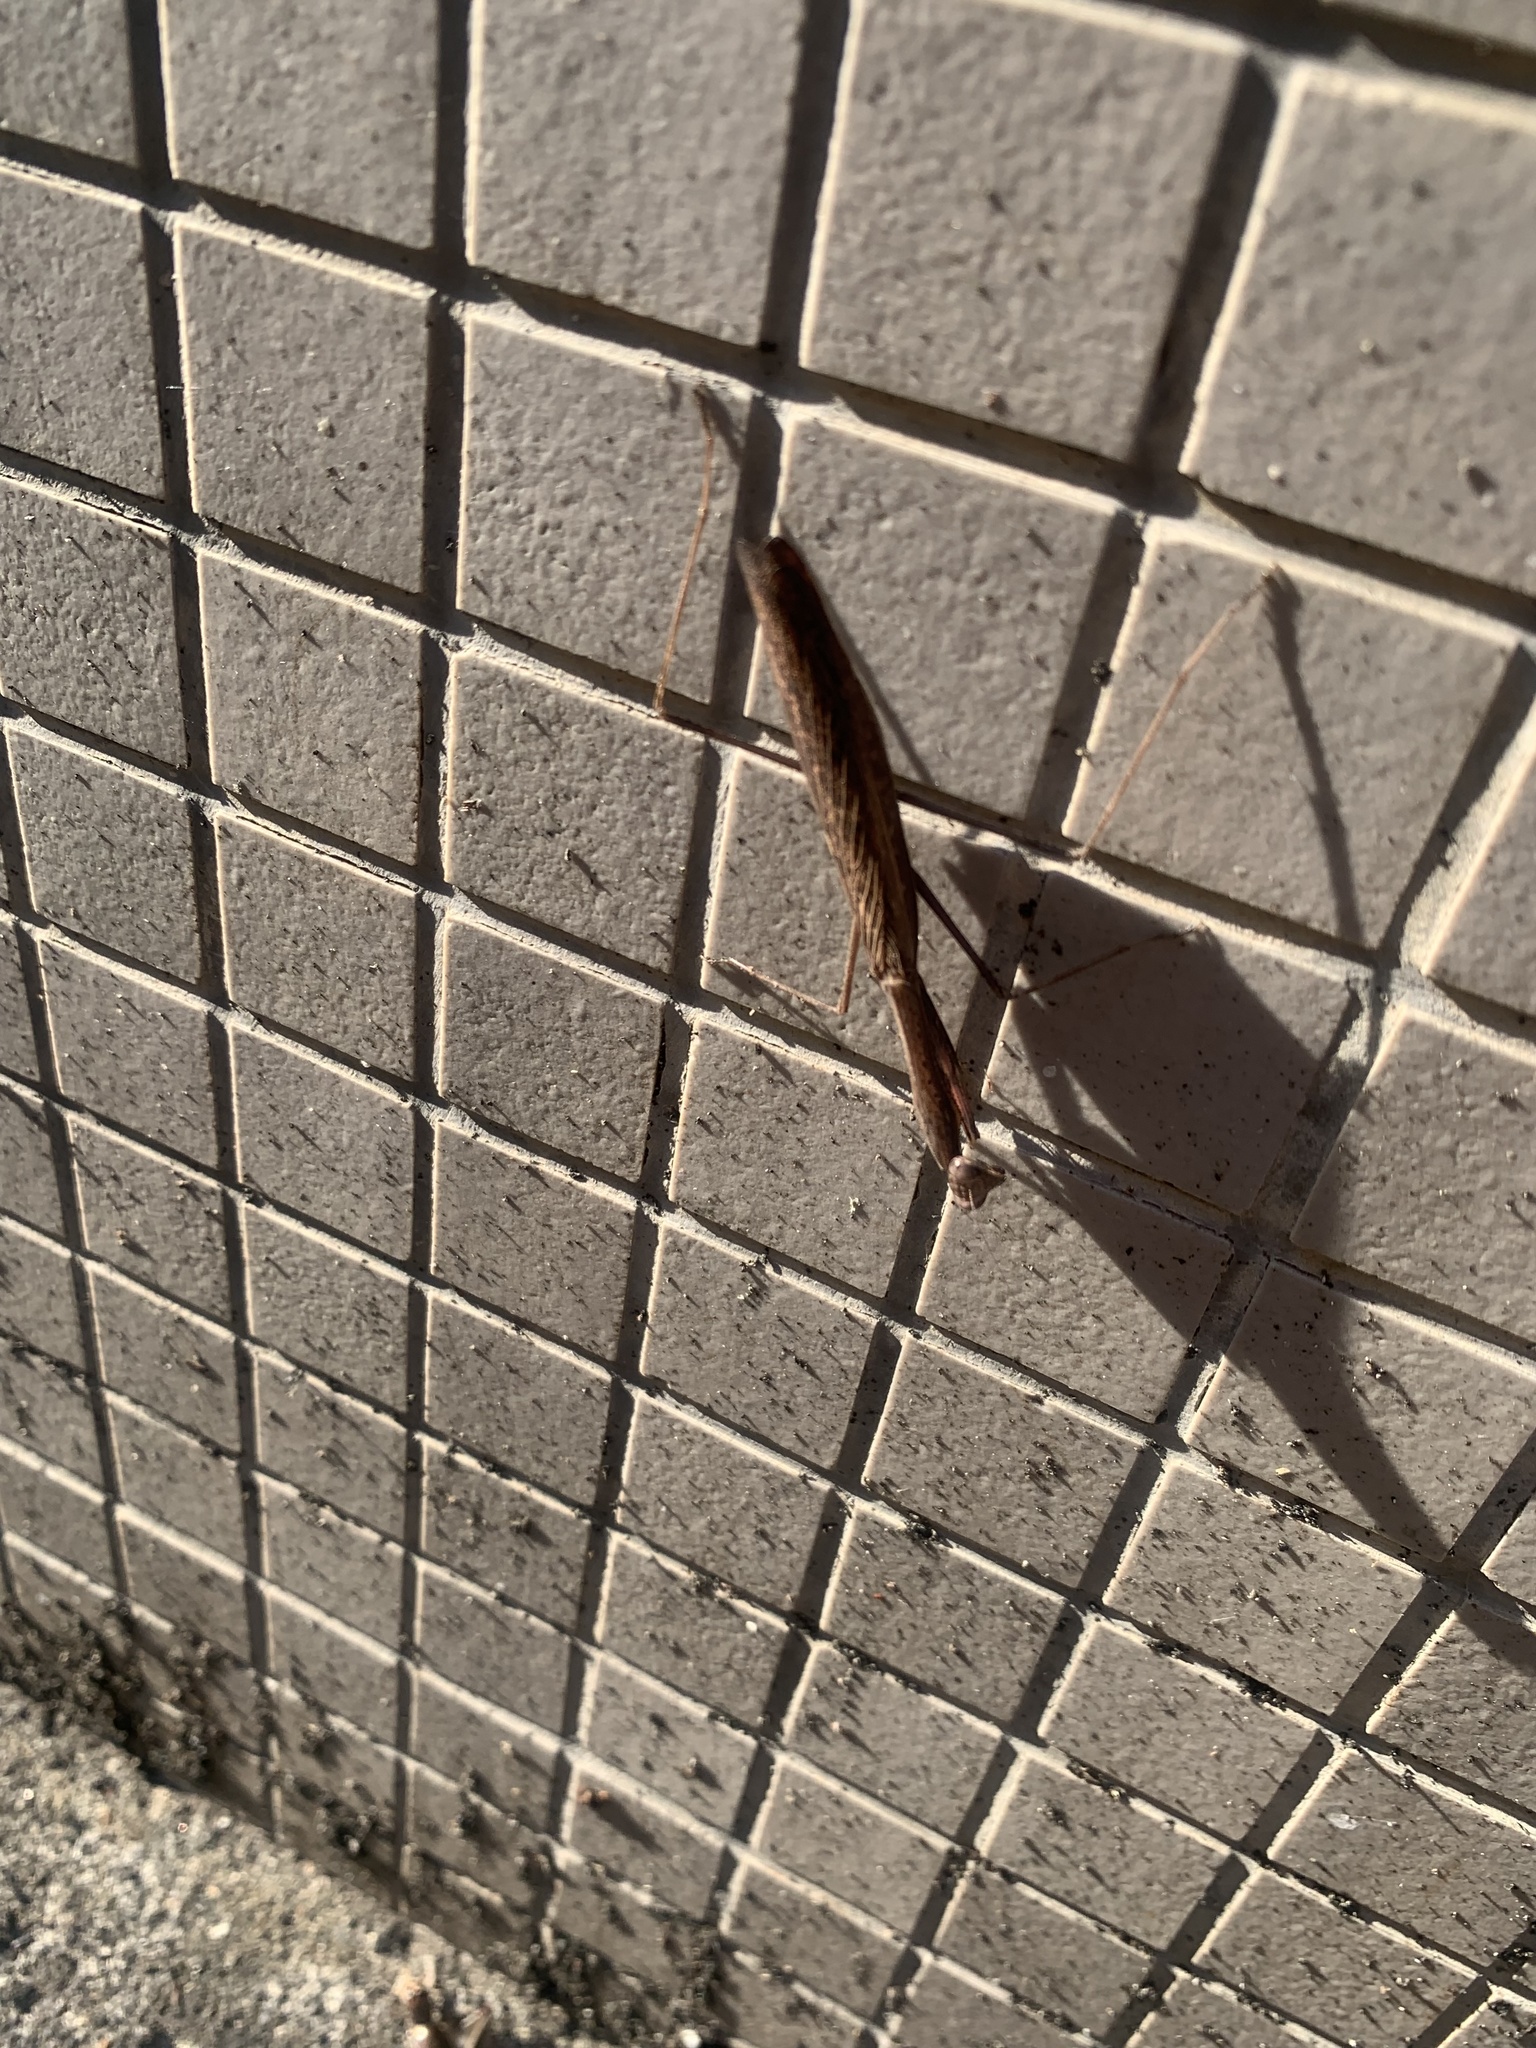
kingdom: Animalia
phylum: Arthropoda
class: Insecta
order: Mantodea
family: Mantidae
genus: Statilia
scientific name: Statilia maculata
